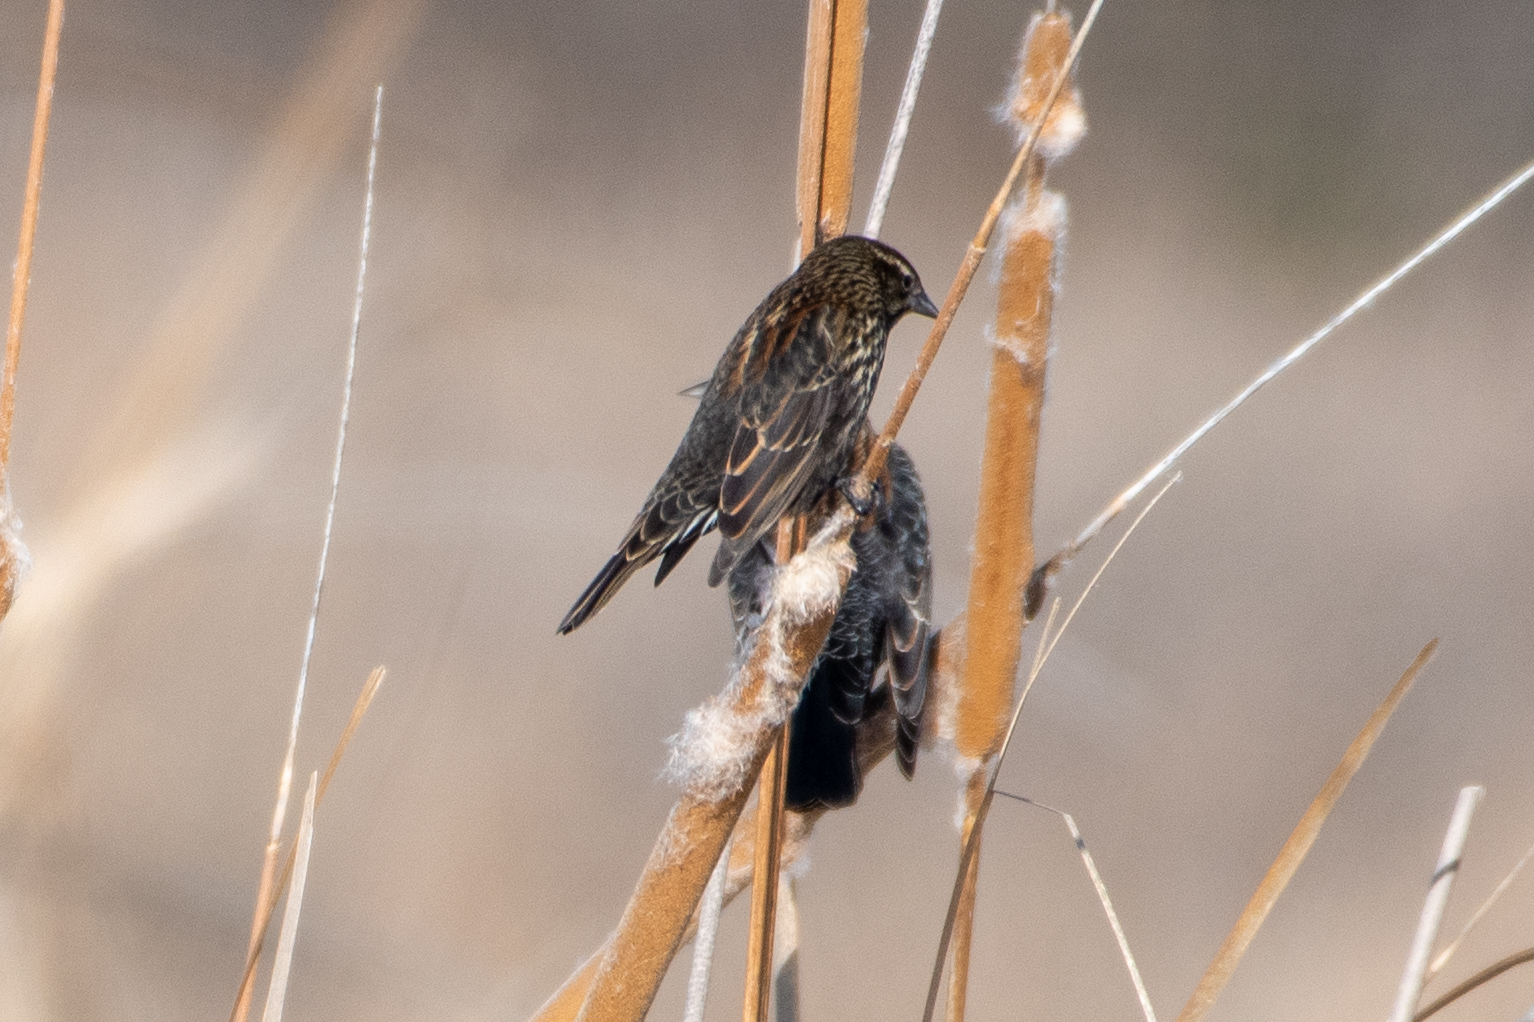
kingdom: Animalia
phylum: Chordata
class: Aves
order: Passeriformes
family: Icteridae
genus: Agelaius
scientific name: Agelaius phoeniceus
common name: Red-winged blackbird
